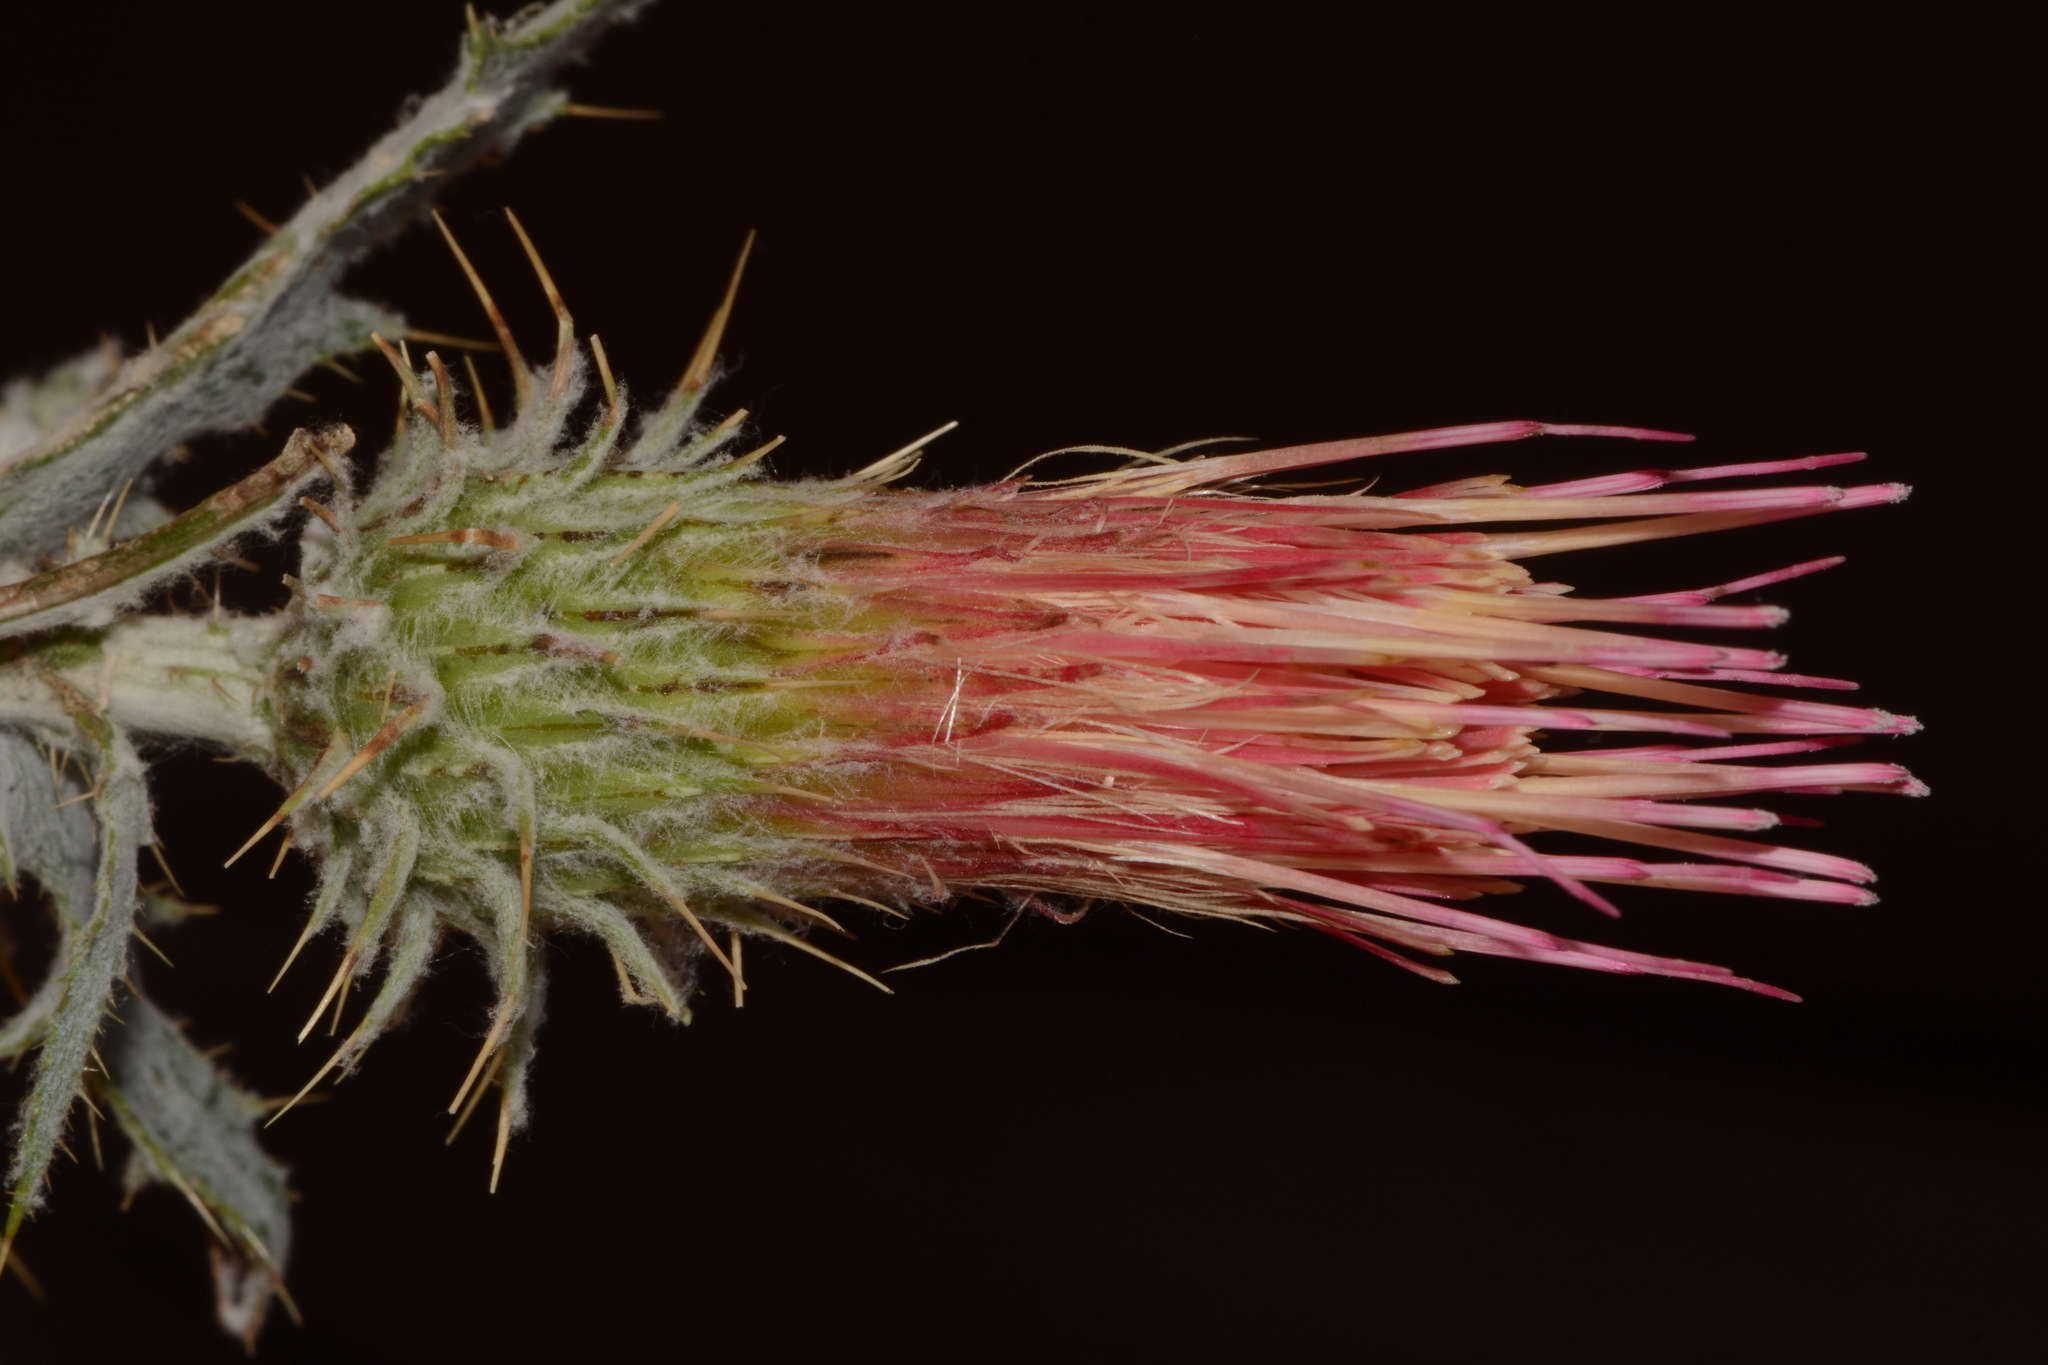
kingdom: Plantae
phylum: Tracheophyta
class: Magnoliopsida
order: Asterales
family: Asteraceae
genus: Cirsium
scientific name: Cirsium arizonicum
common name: Arizona thistle
